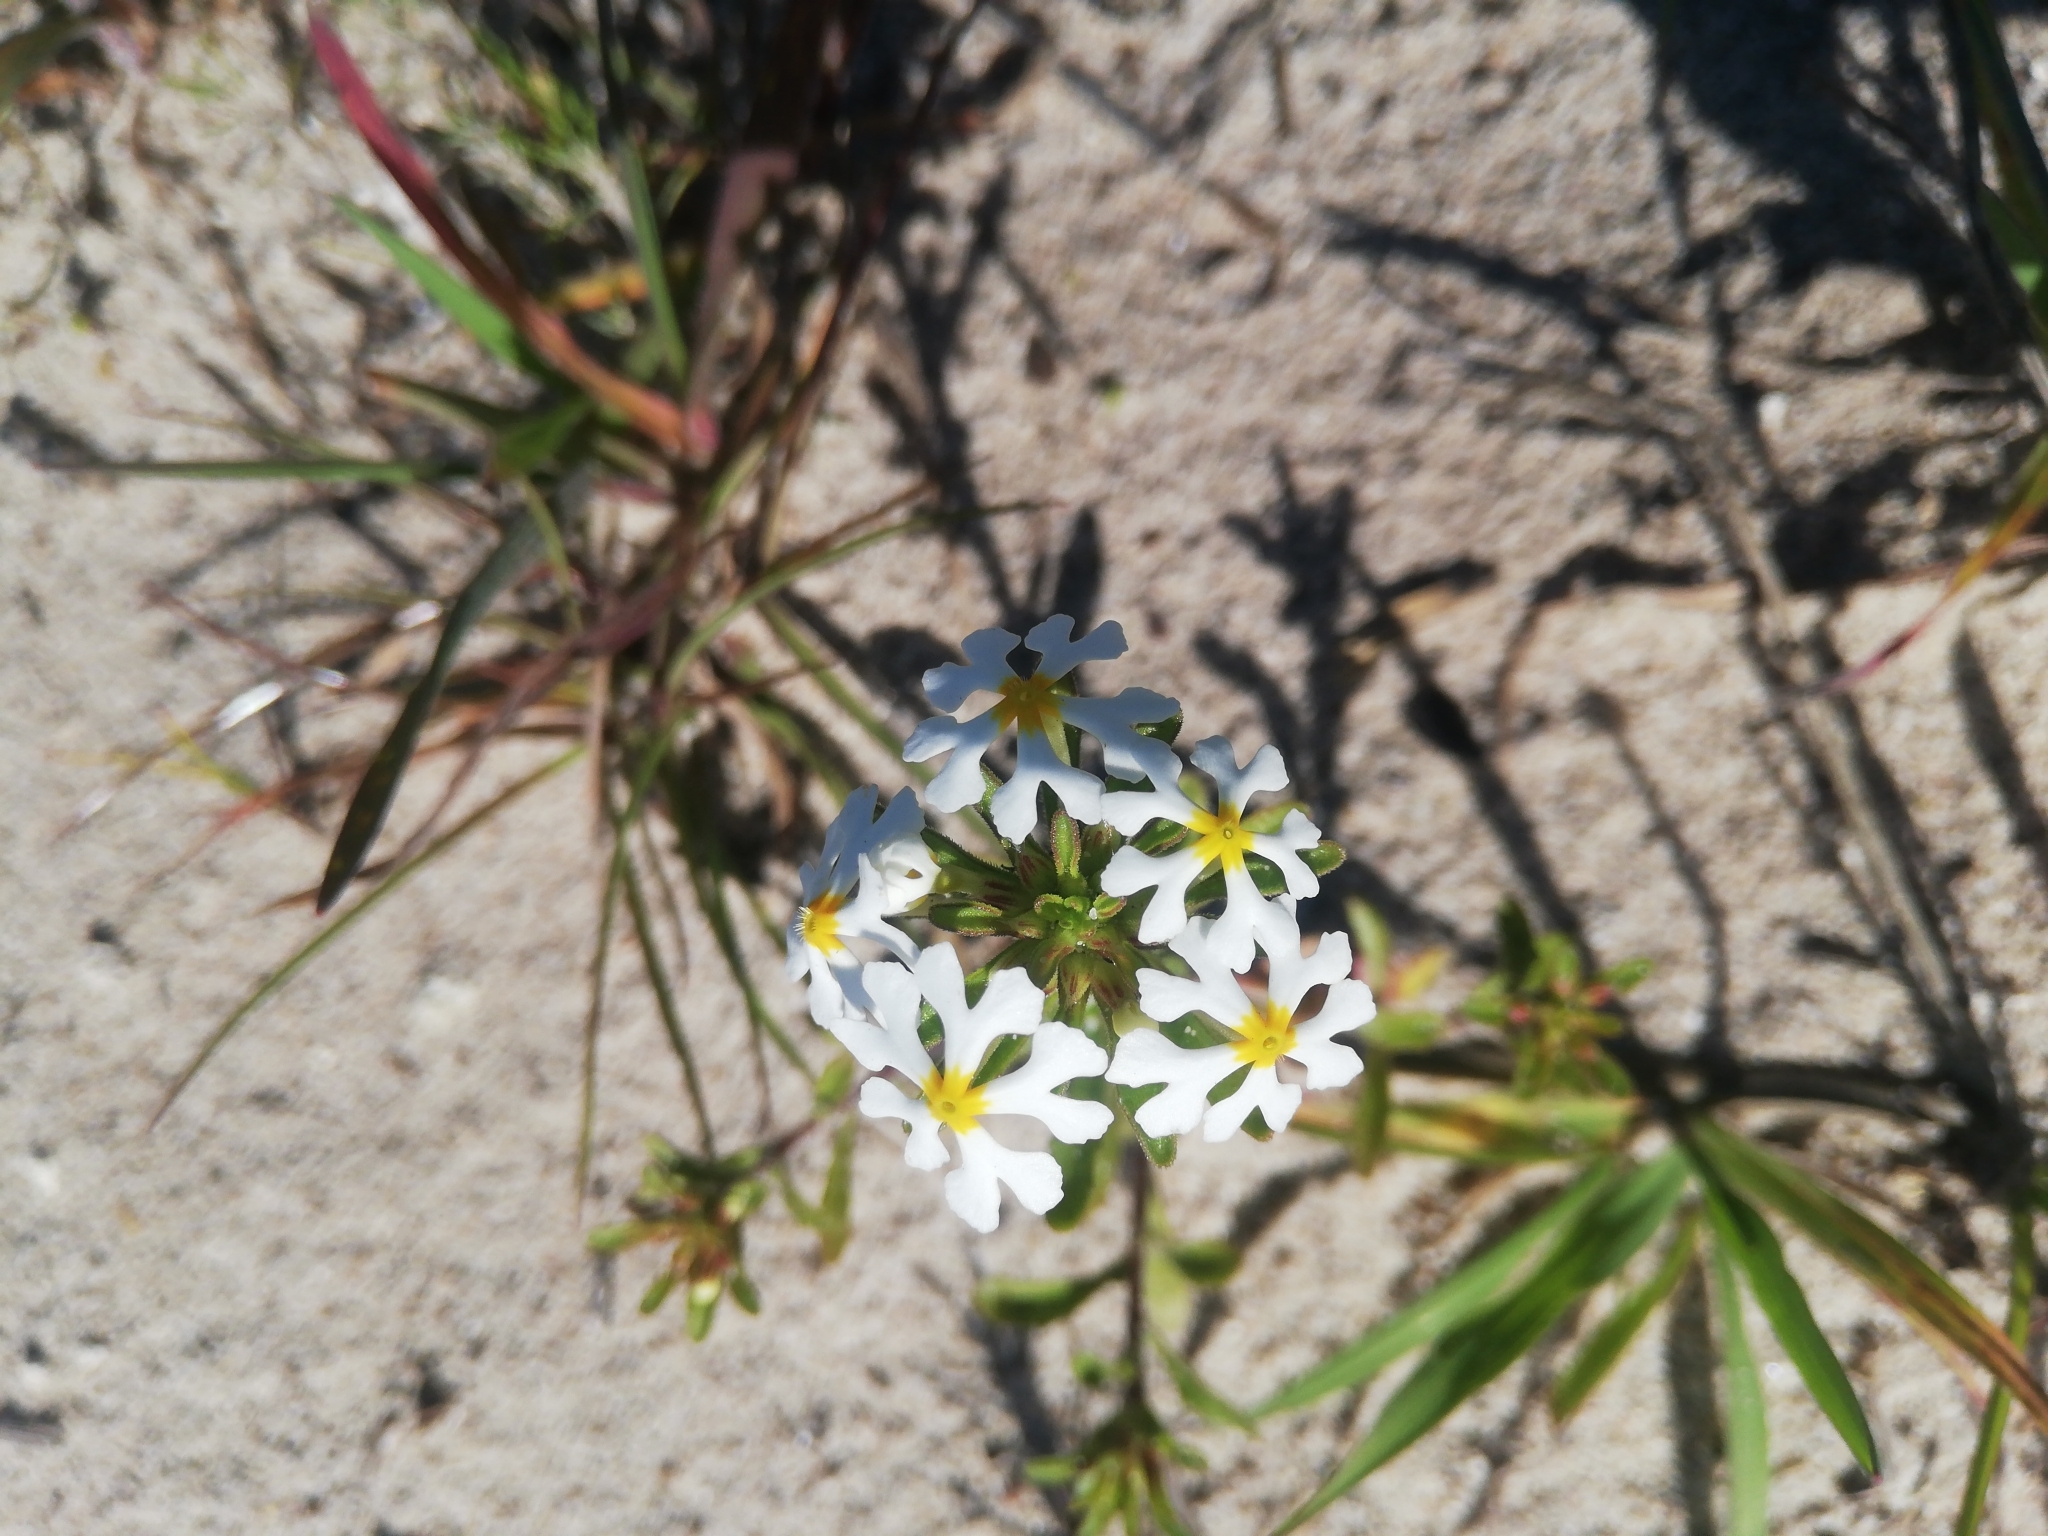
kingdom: Plantae
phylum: Tracheophyta
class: Magnoliopsida
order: Lamiales
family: Scrophulariaceae
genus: Zaluzianskya
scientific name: Zaluzianskya villosa
